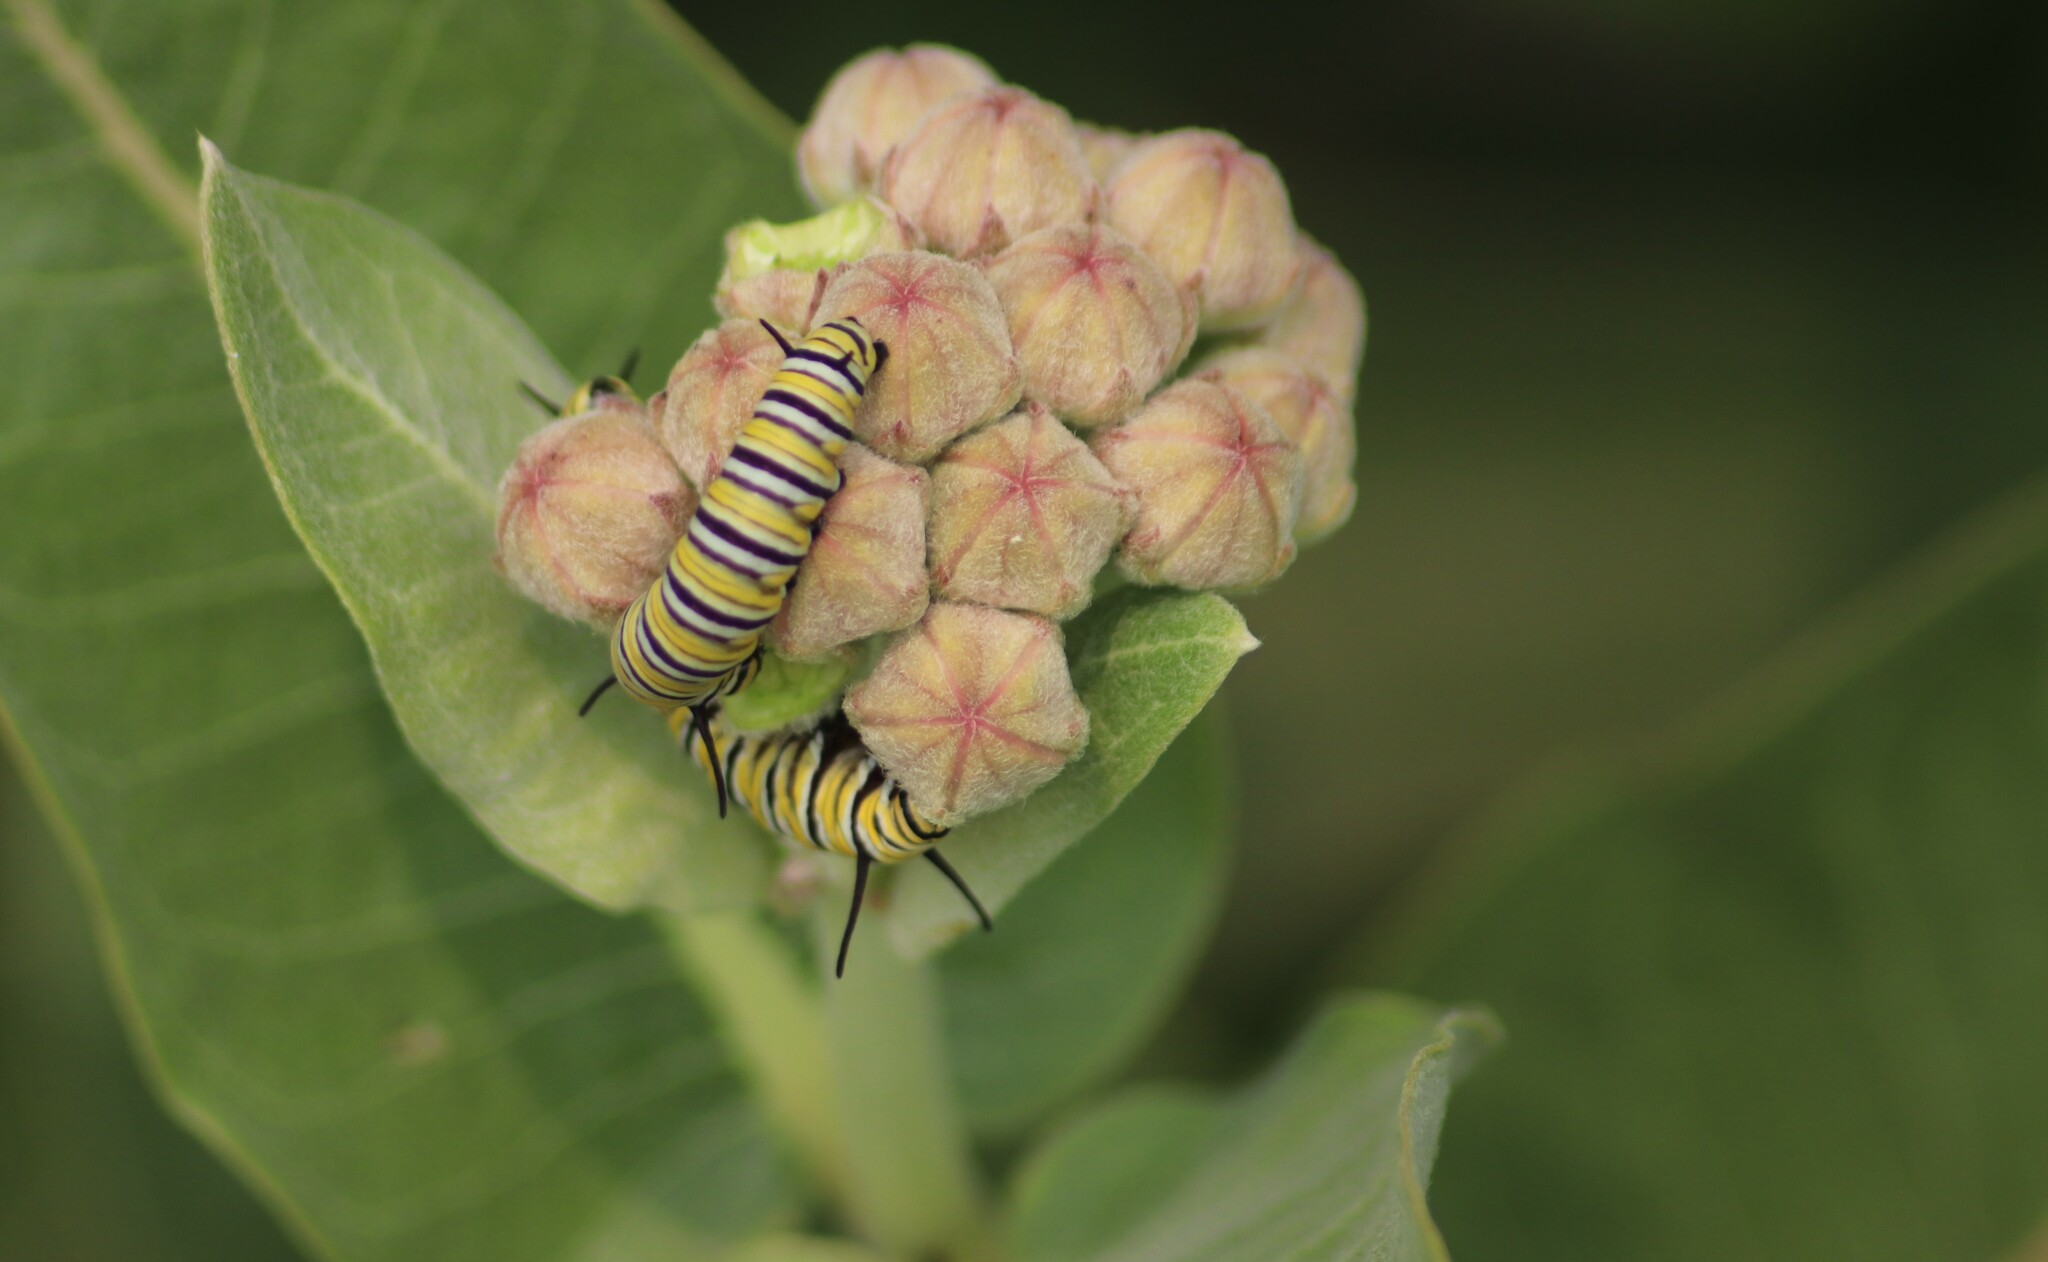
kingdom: Animalia
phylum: Arthropoda
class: Insecta
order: Lepidoptera
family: Nymphalidae
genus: Danaus
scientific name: Danaus plexippus
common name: Monarch
